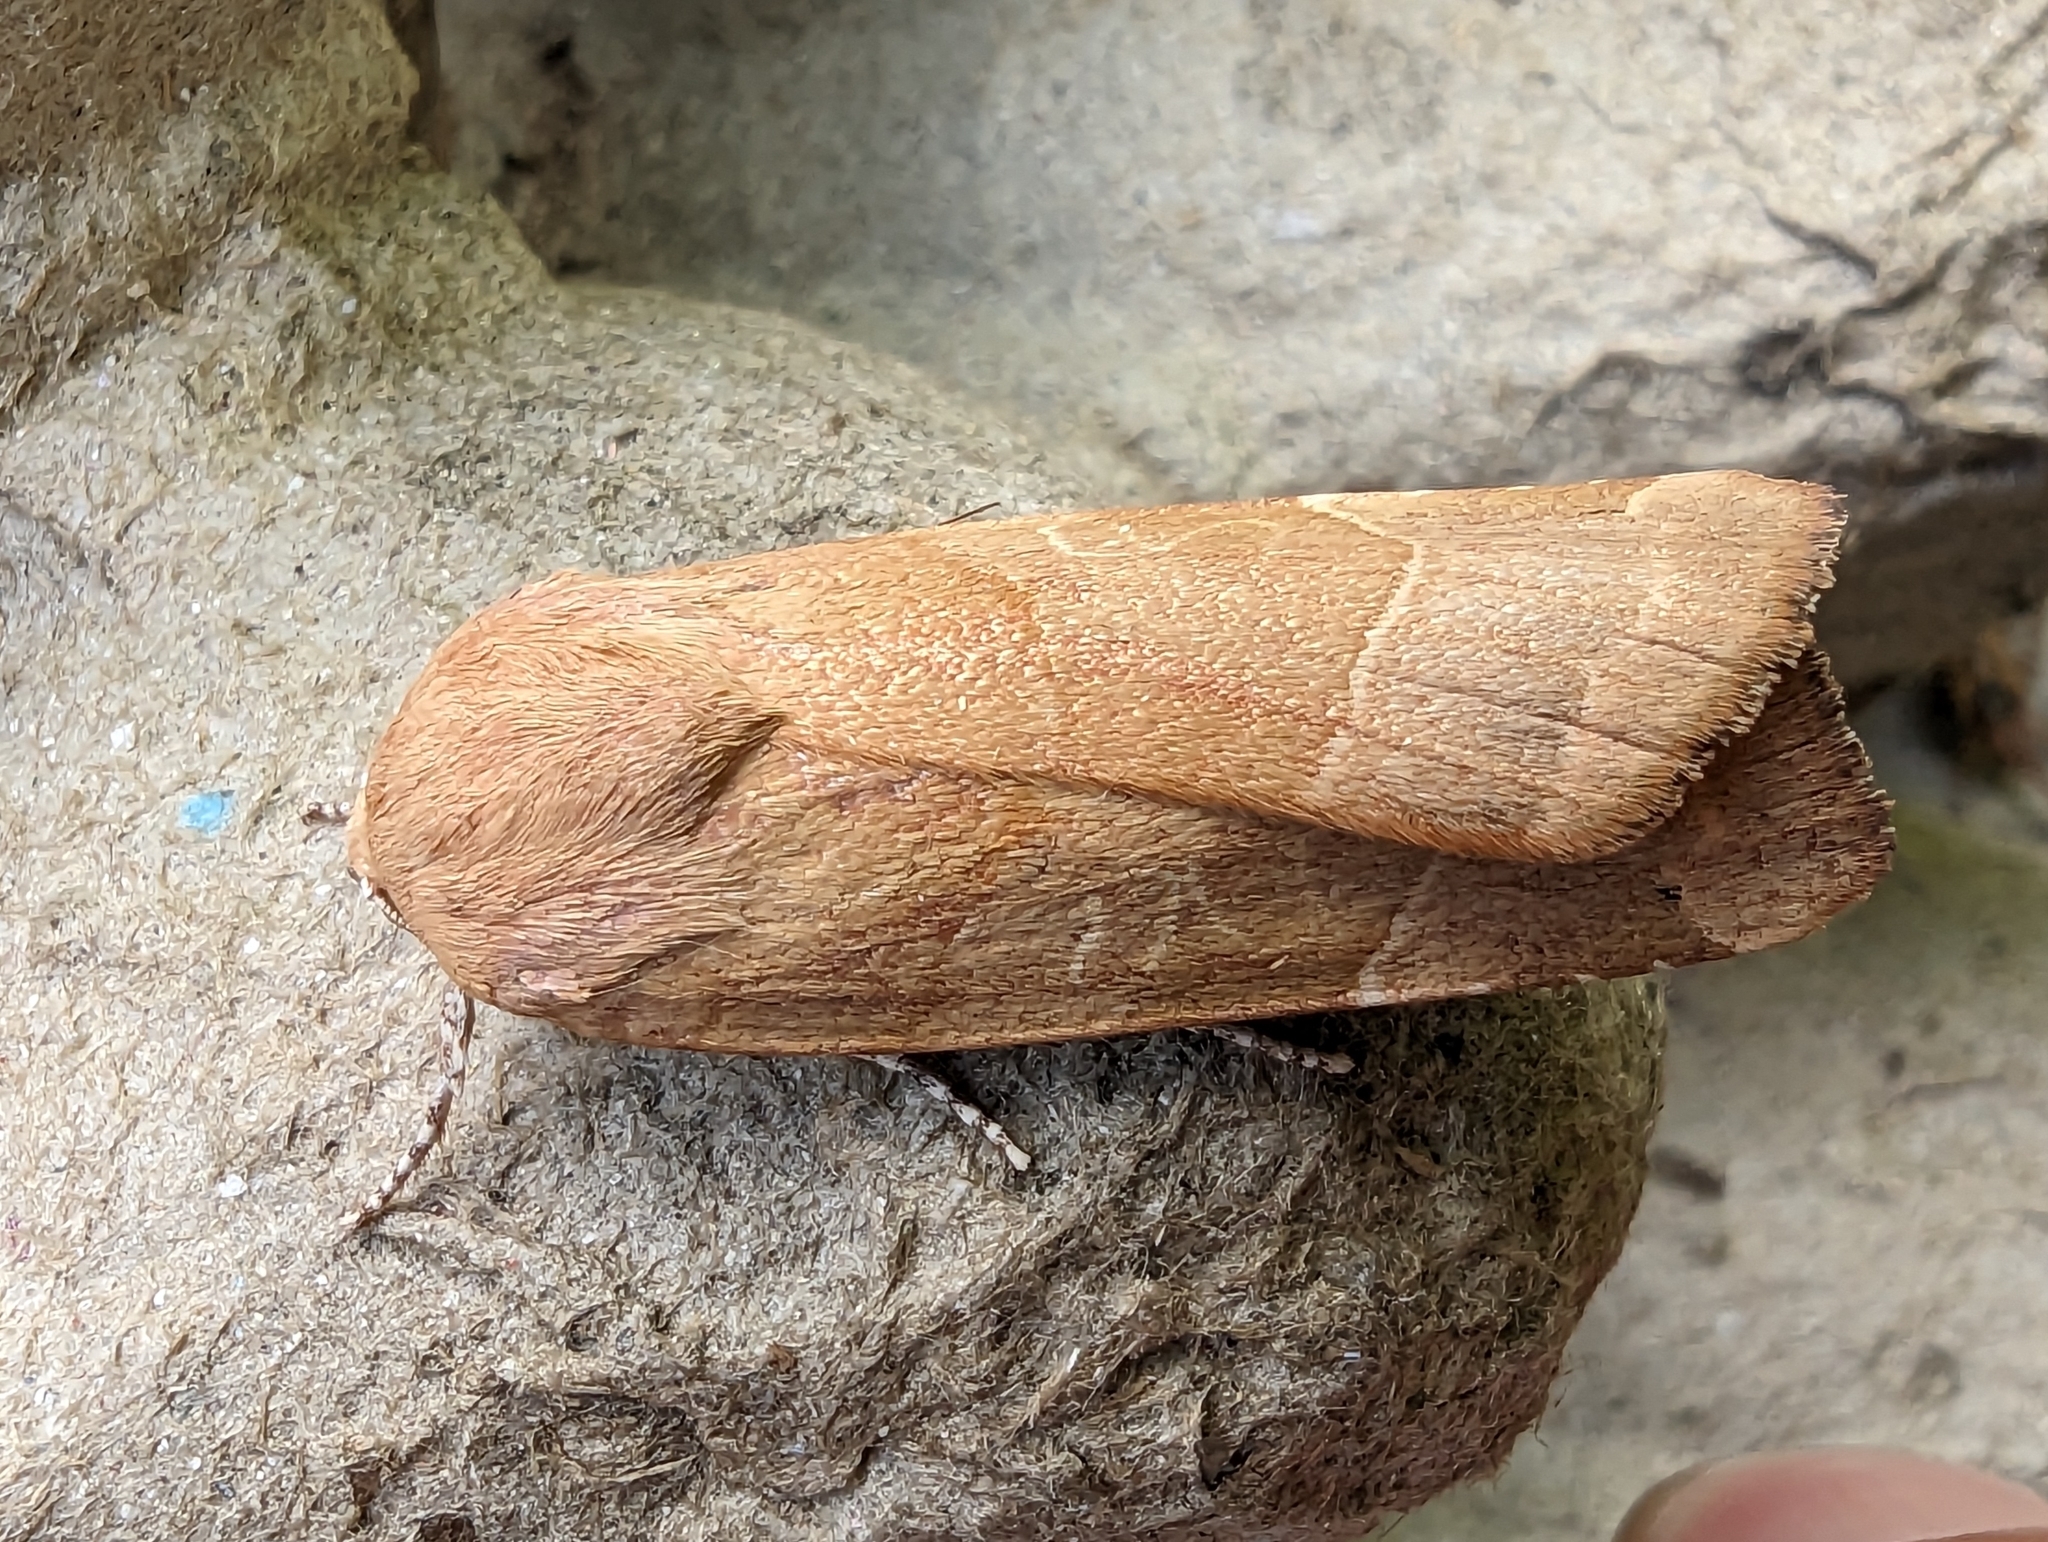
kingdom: Animalia
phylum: Arthropoda
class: Insecta
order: Lepidoptera
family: Noctuidae
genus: Noctua
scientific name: Noctua fimbriata
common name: Broad-bordered yellow underwing
